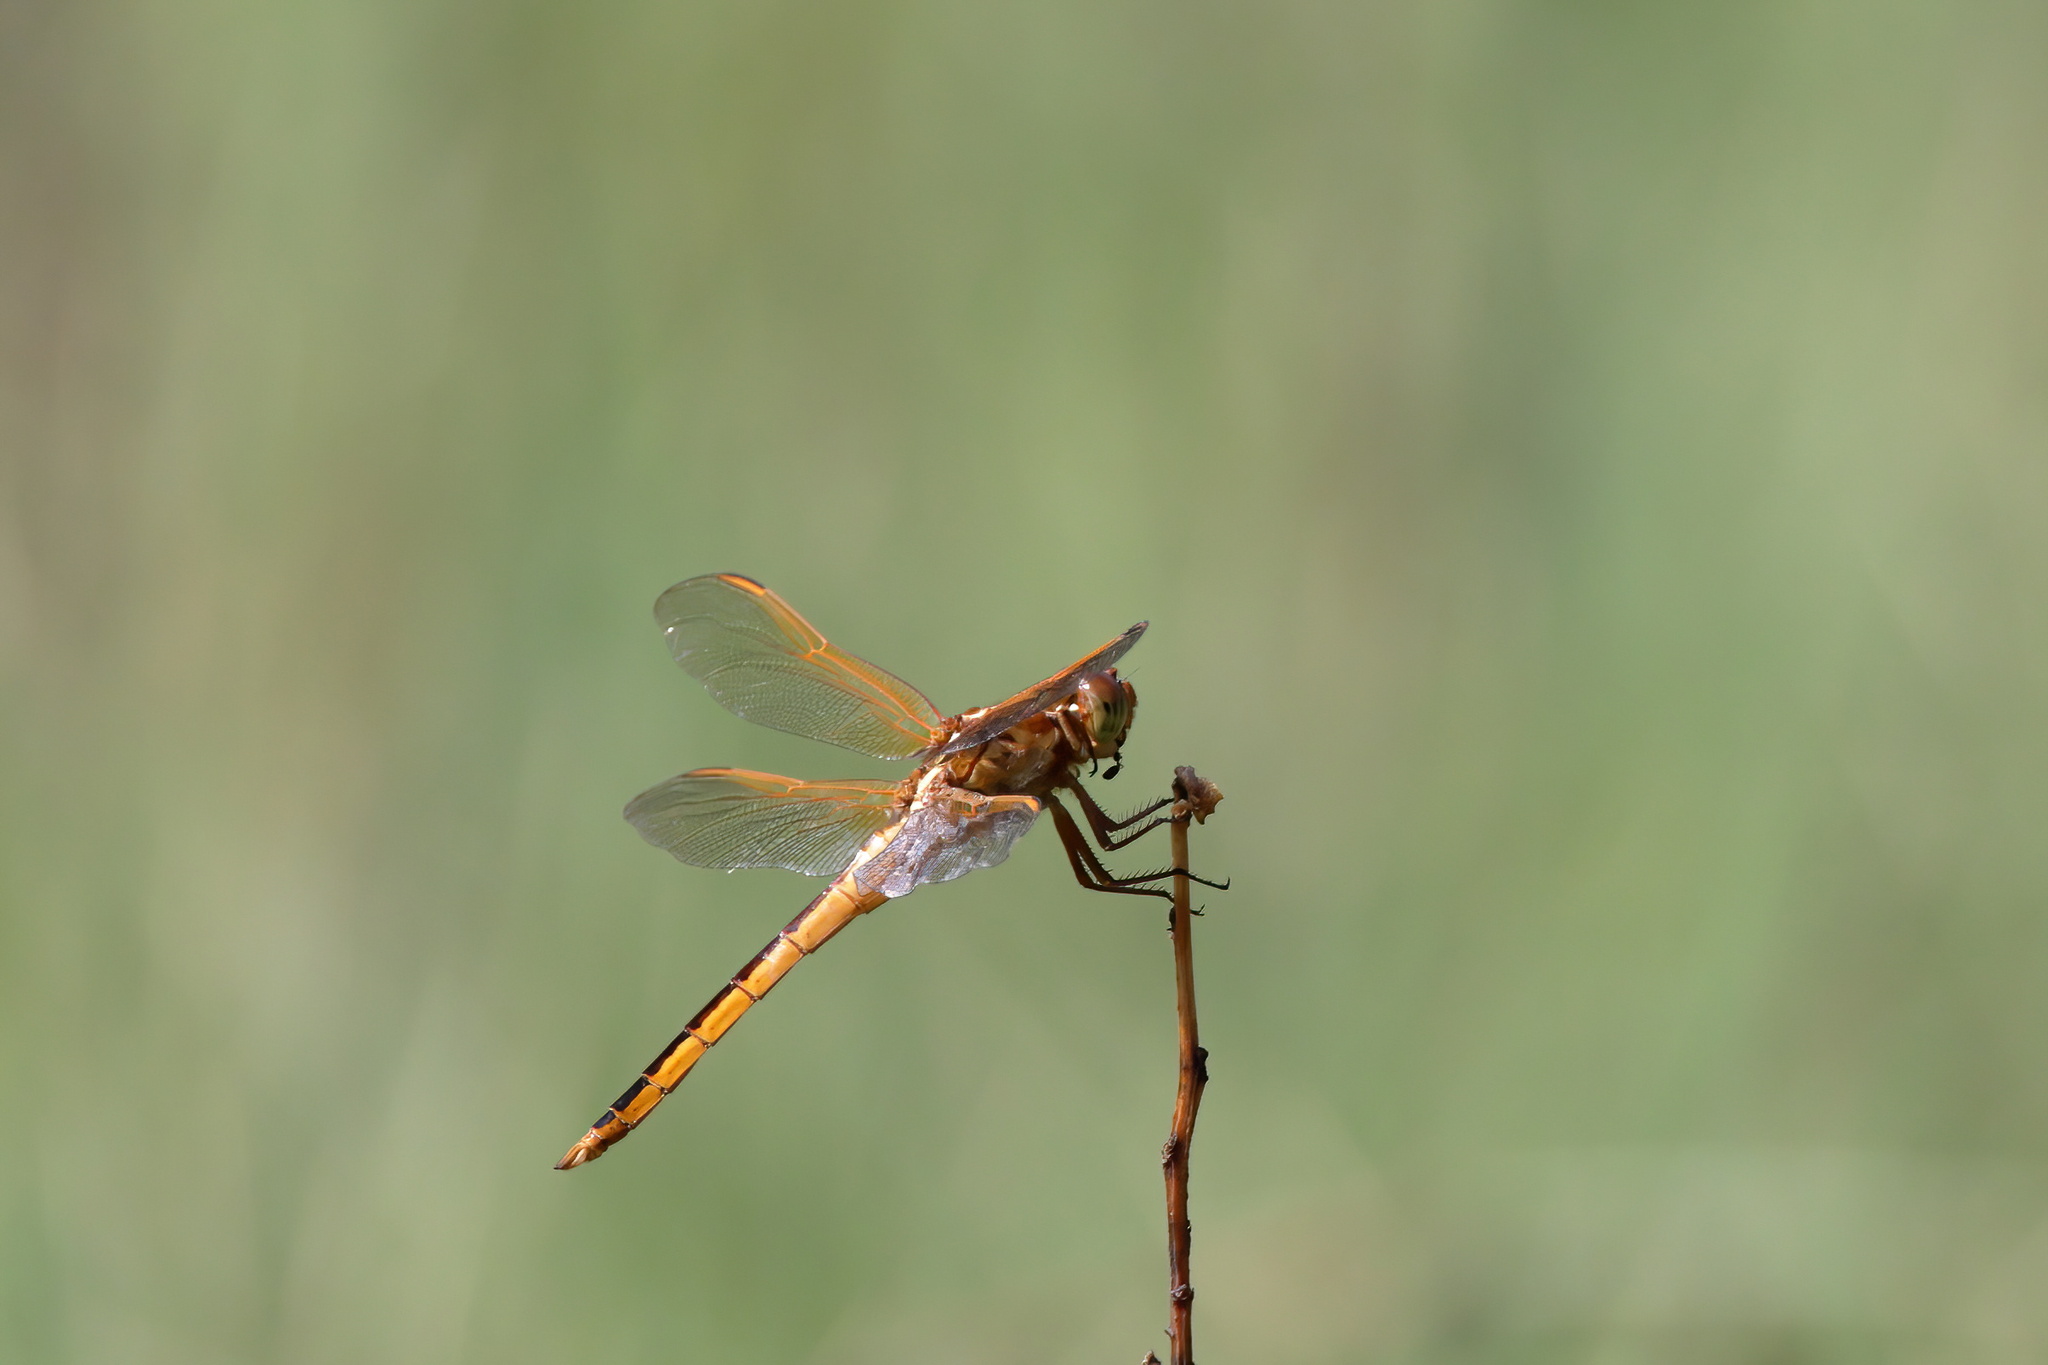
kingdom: Animalia
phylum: Arthropoda
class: Insecta
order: Odonata
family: Libellulidae
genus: Libellula
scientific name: Libellula needhami
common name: Needham's skimmer
